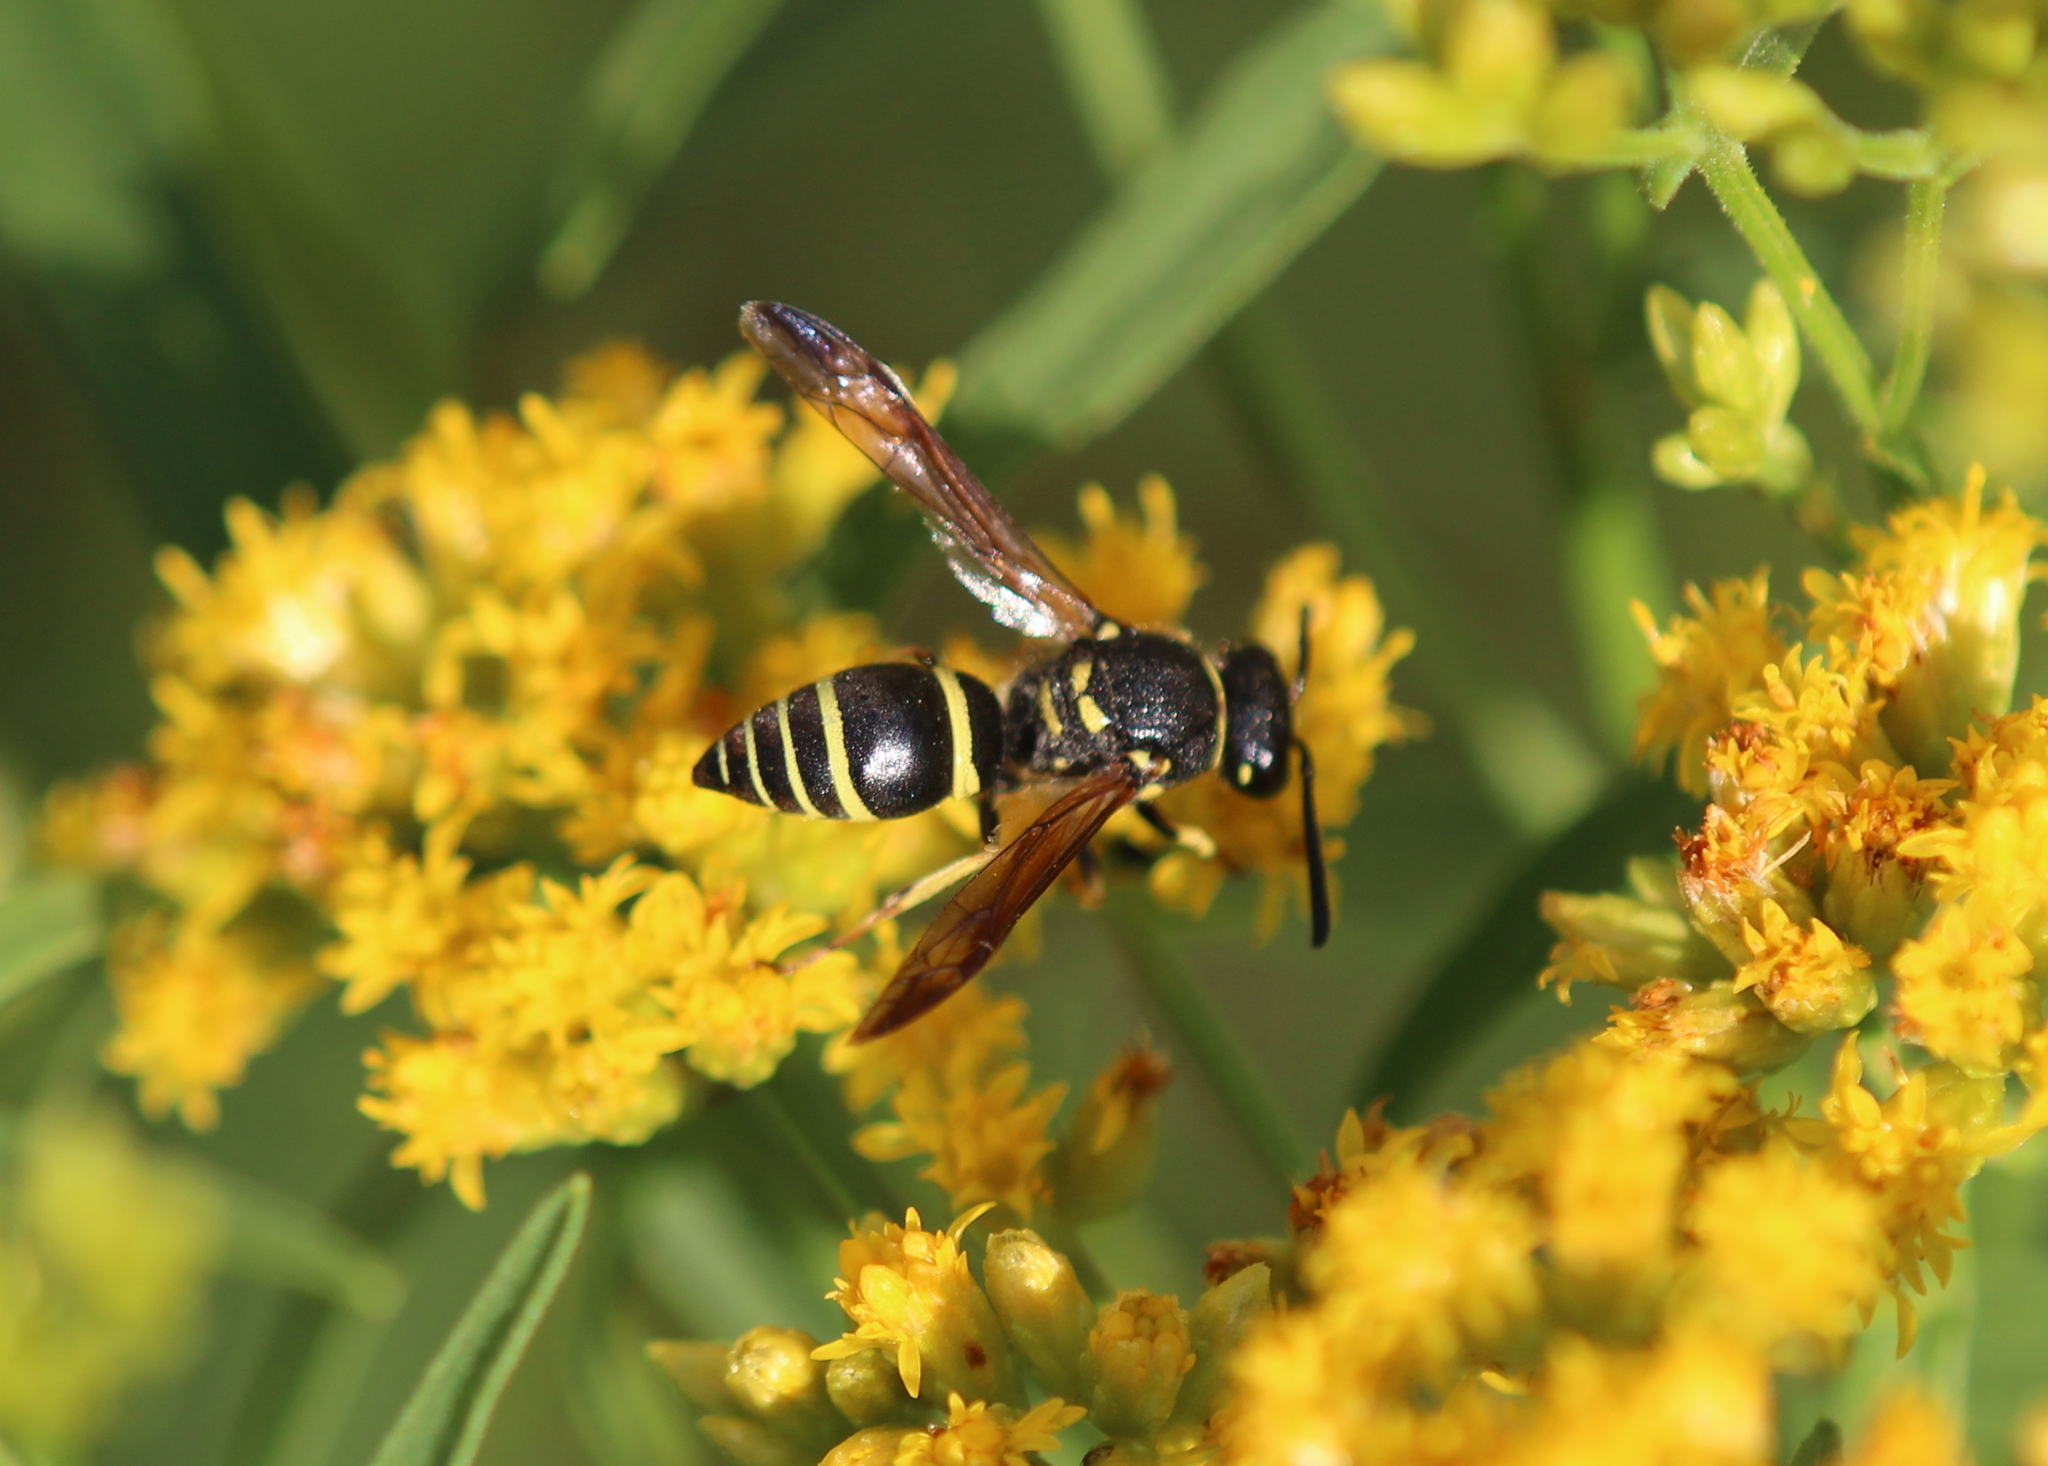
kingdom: Animalia
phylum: Arthropoda
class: Insecta
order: Hymenoptera
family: Vespidae
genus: Ancistrocerus
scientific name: Ancistrocerus catskill
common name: Vespid wasp
